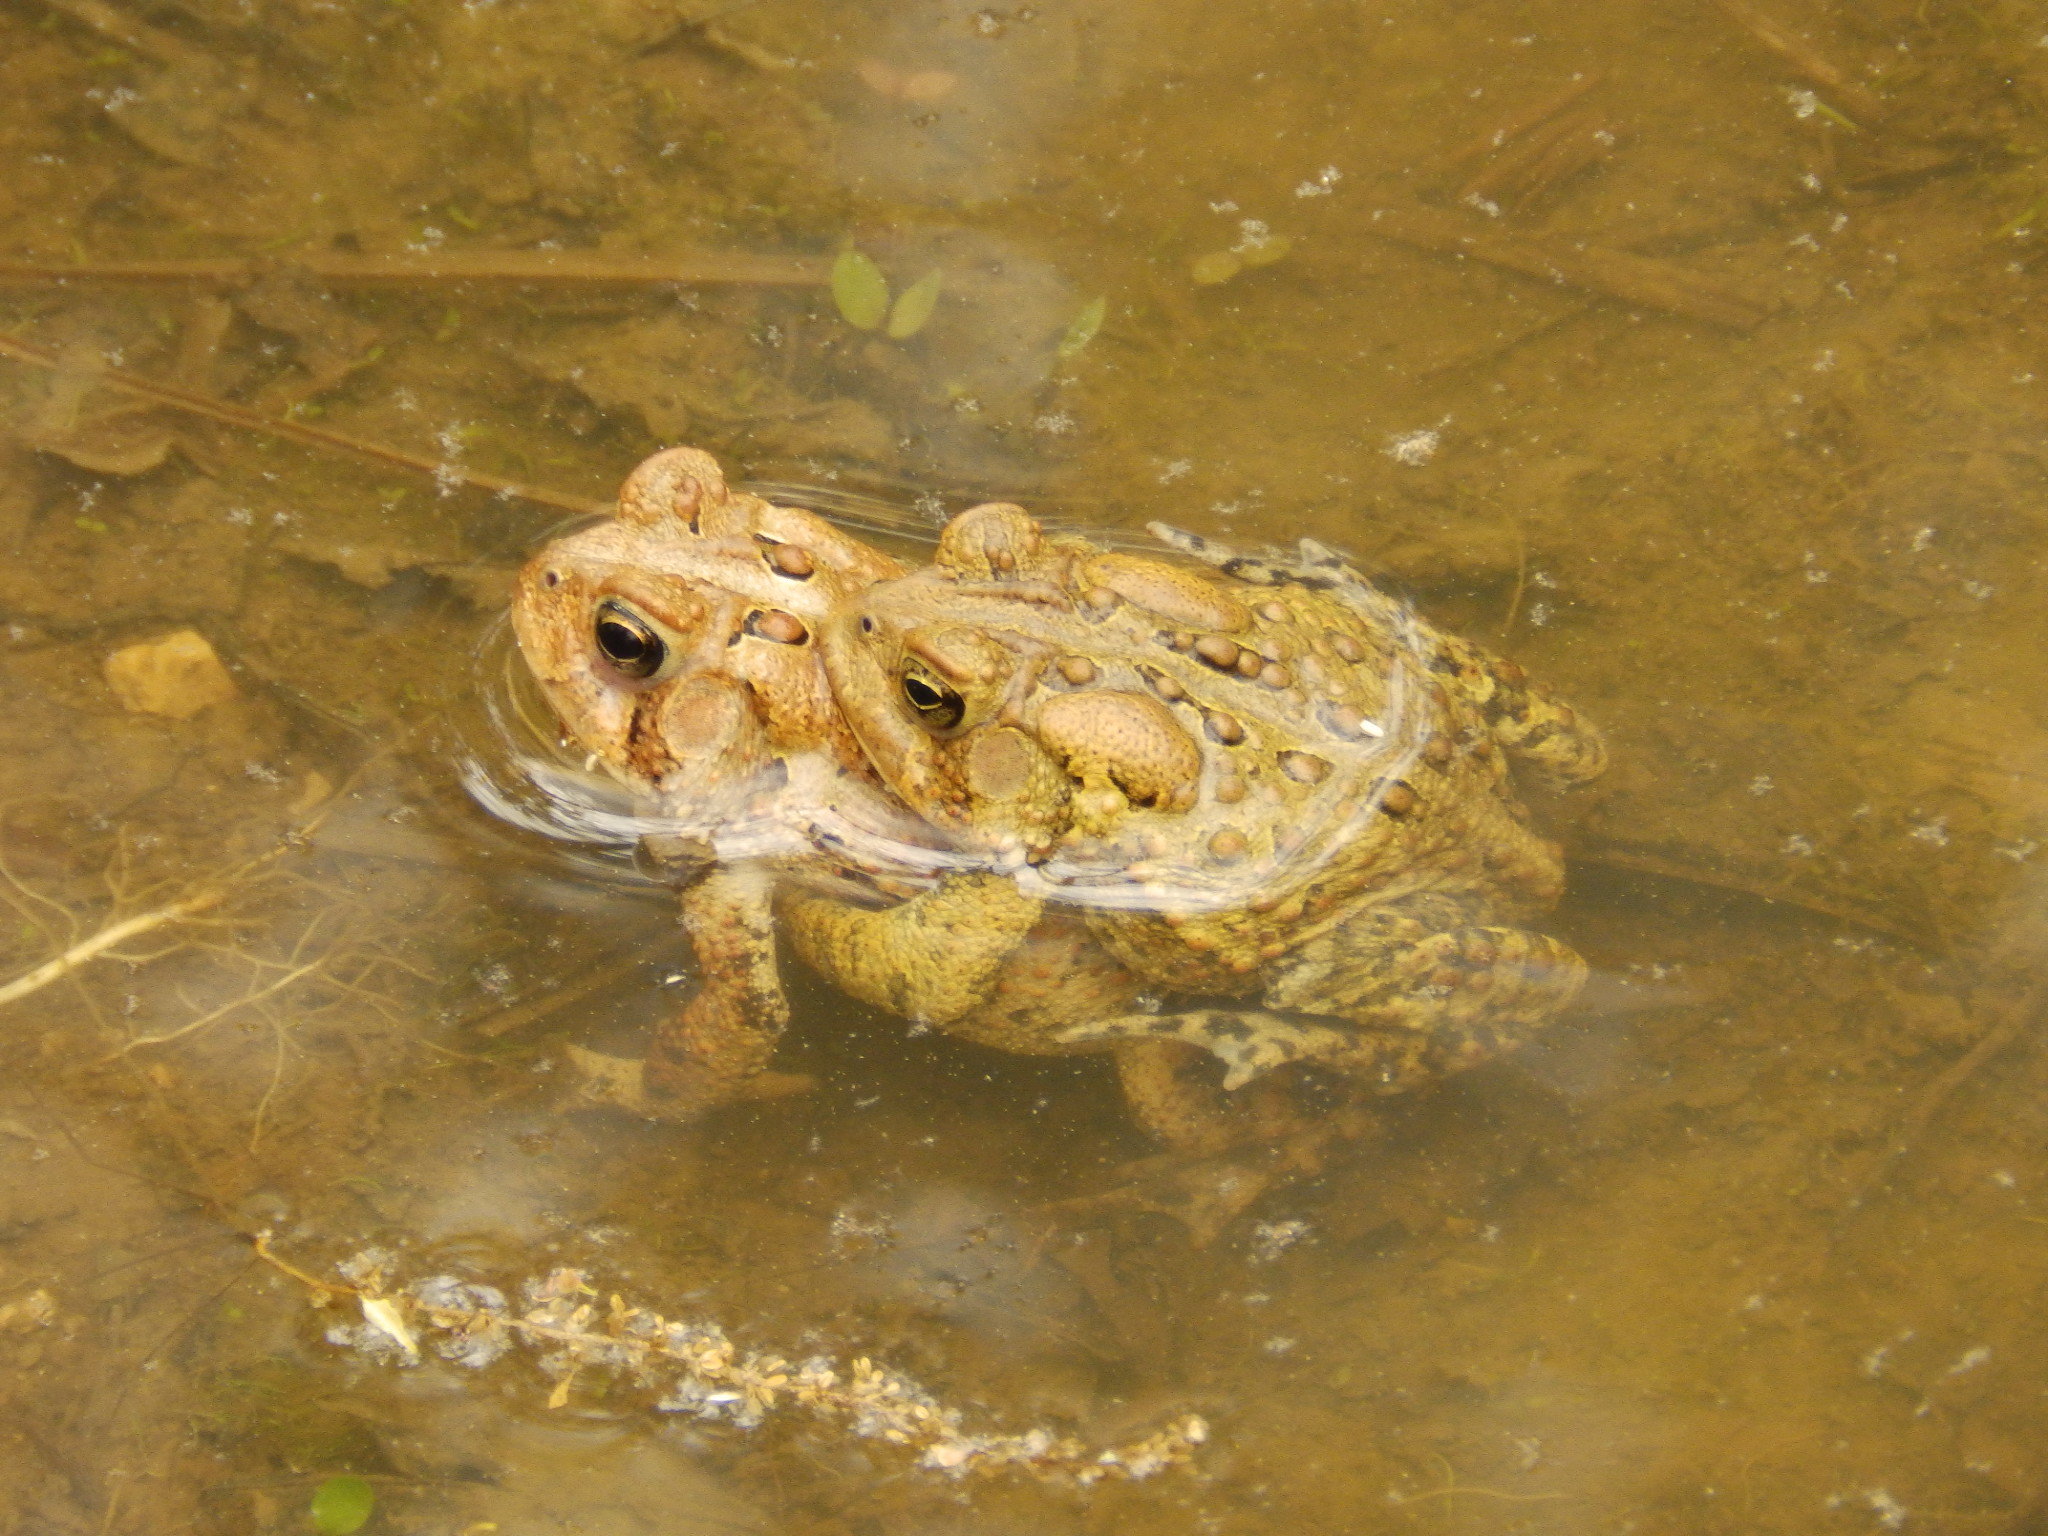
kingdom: Animalia
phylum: Chordata
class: Amphibia
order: Anura
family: Bufonidae
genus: Anaxyrus
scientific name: Anaxyrus americanus
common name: American toad
